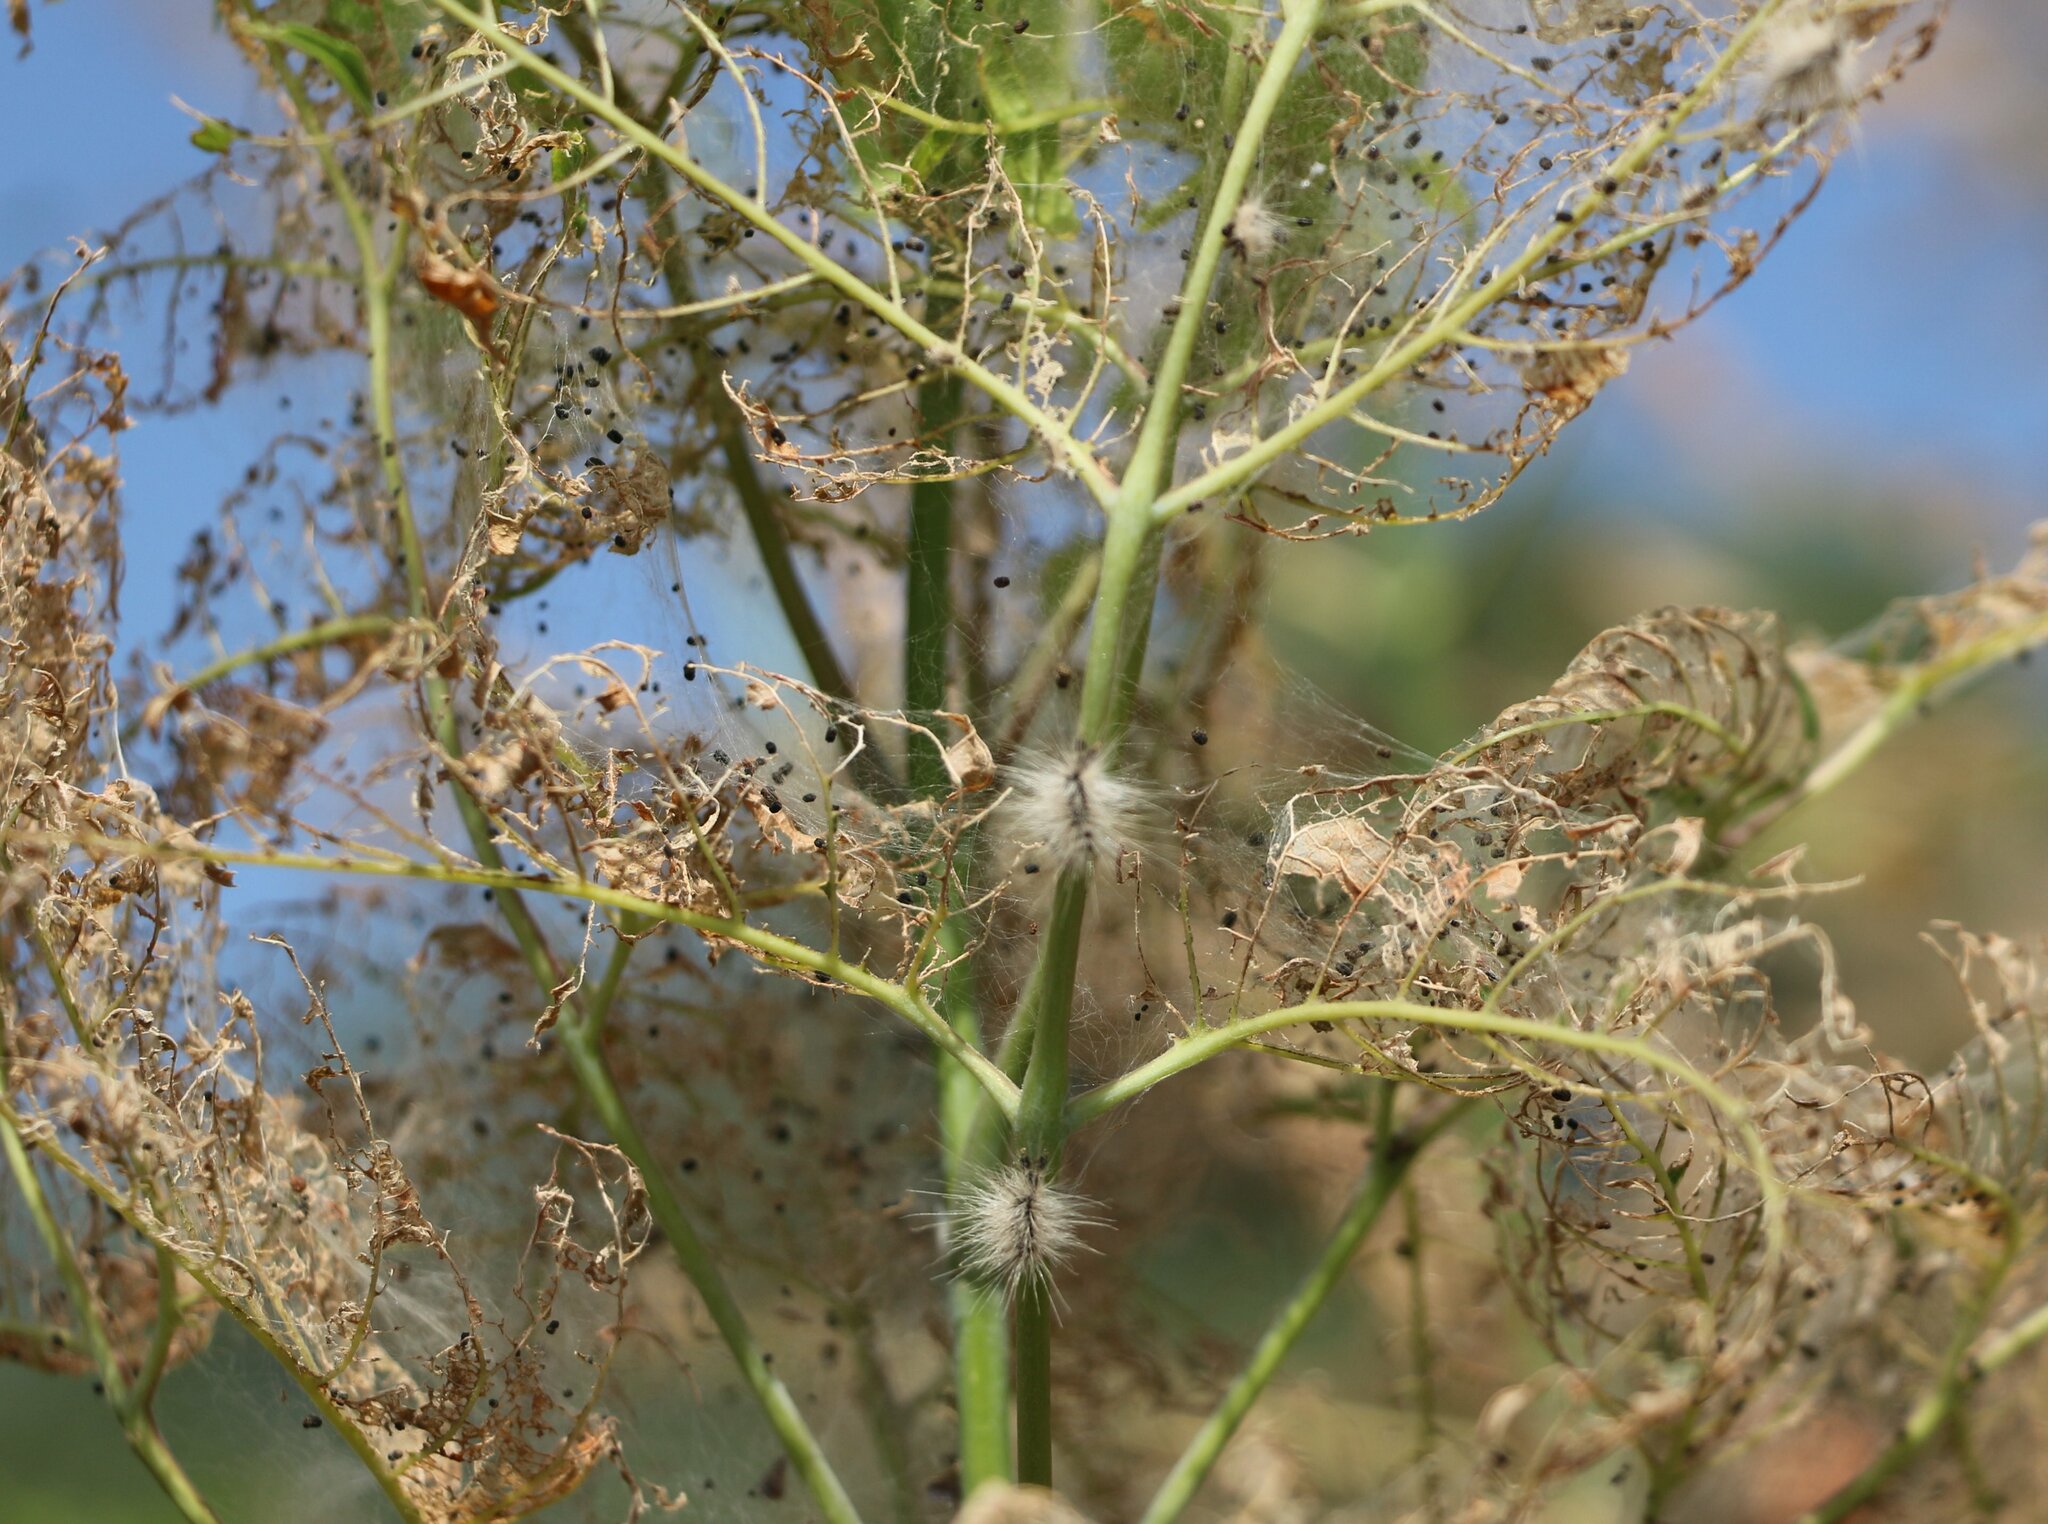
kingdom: Plantae
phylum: Tracheophyta
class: Magnoliopsida
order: Sapindales
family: Sapindaceae
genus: Acer
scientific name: Acer negundo
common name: Ashleaf maple
